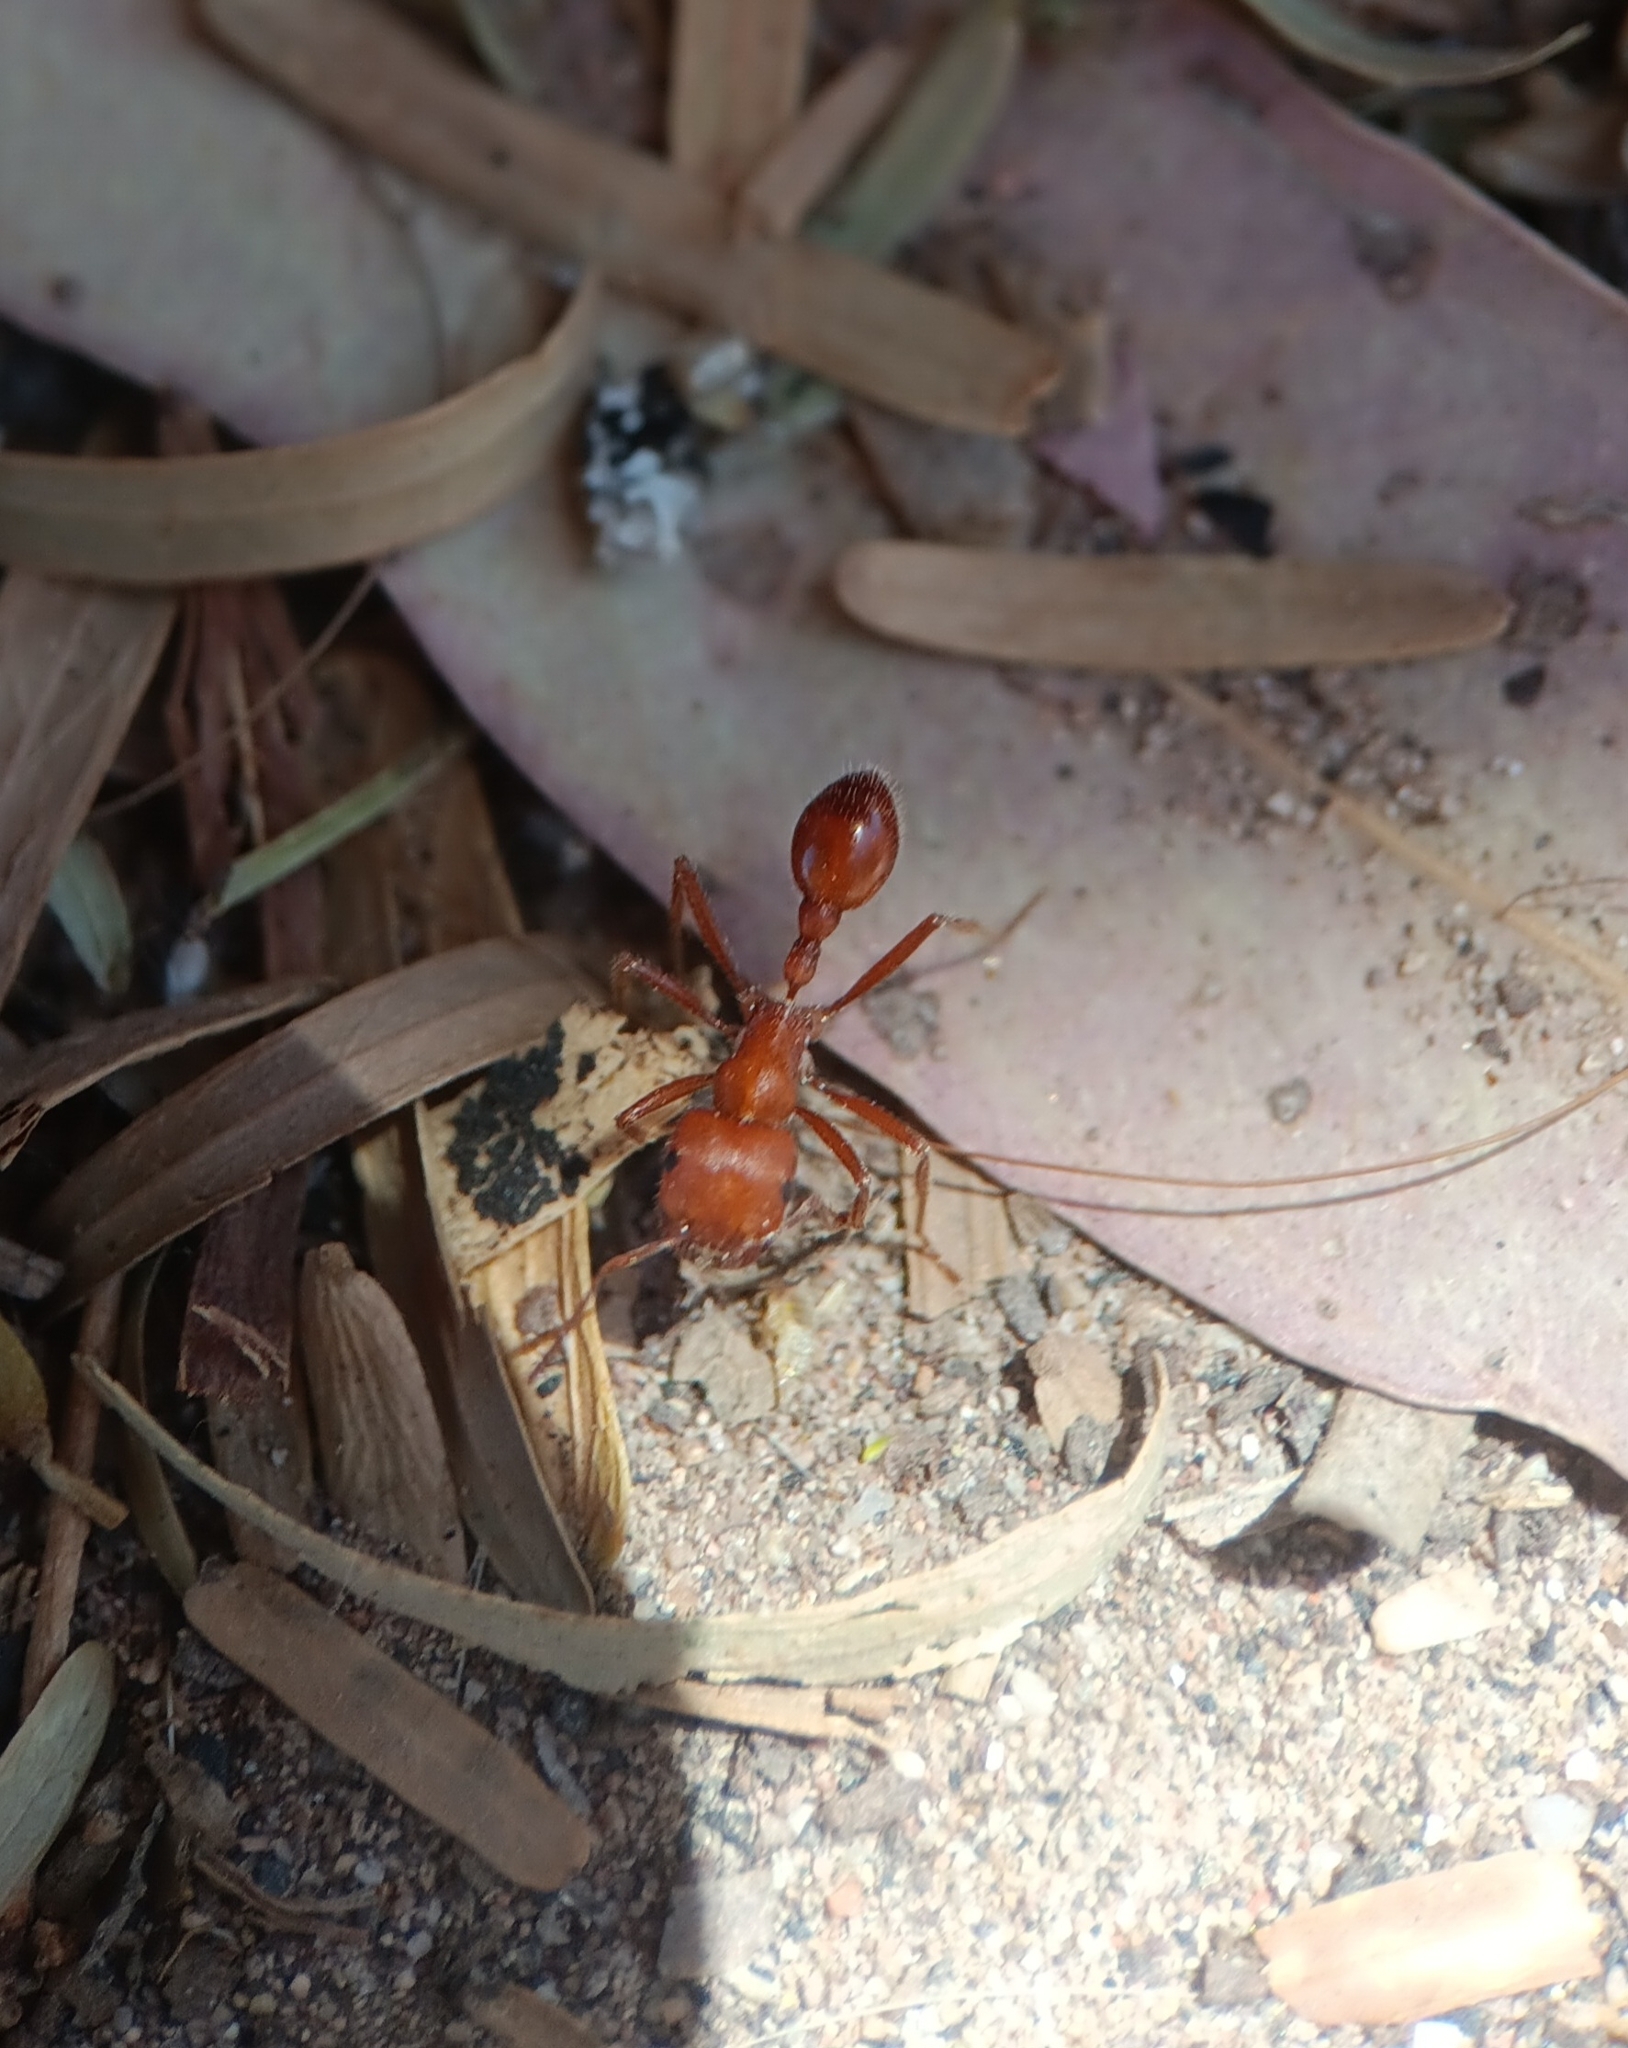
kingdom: Animalia
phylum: Arthropoda
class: Insecta
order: Hymenoptera
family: Formicidae
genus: Pogonomyrmex
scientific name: Pogonomyrmex maricopa
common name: Maricopa harvester ant
